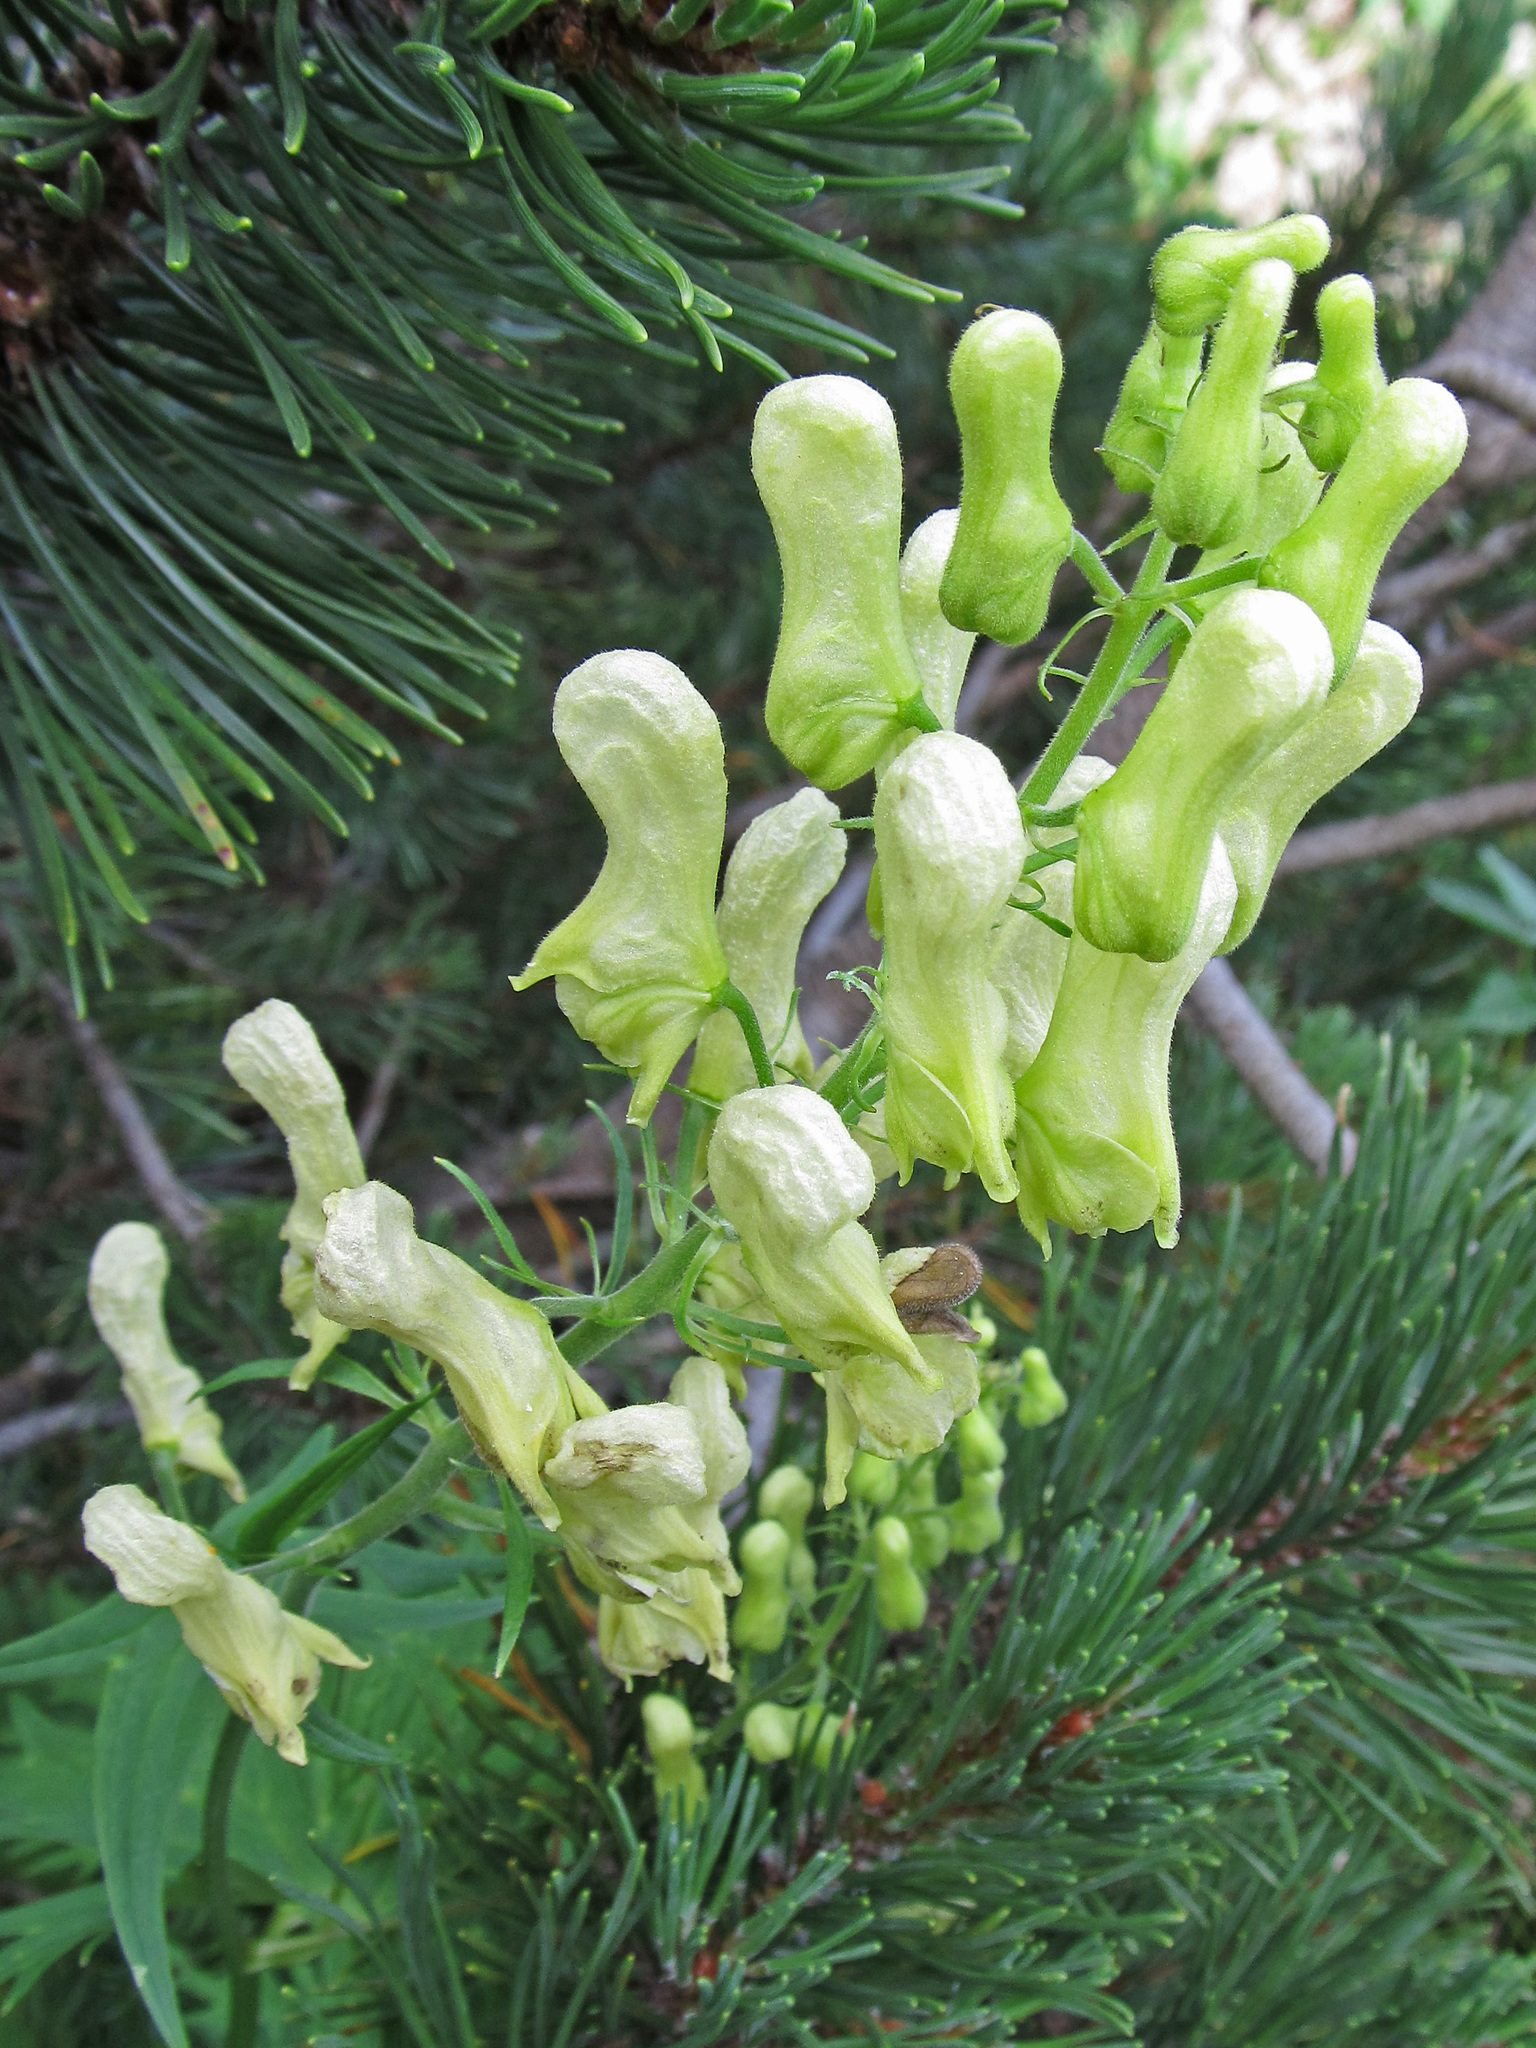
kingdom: Plantae
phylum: Tracheophyta
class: Magnoliopsida
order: Ranunculales
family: Ranunculaceae
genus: Aconitum
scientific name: Aconitum lycoctonum
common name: Wolf's-bane
